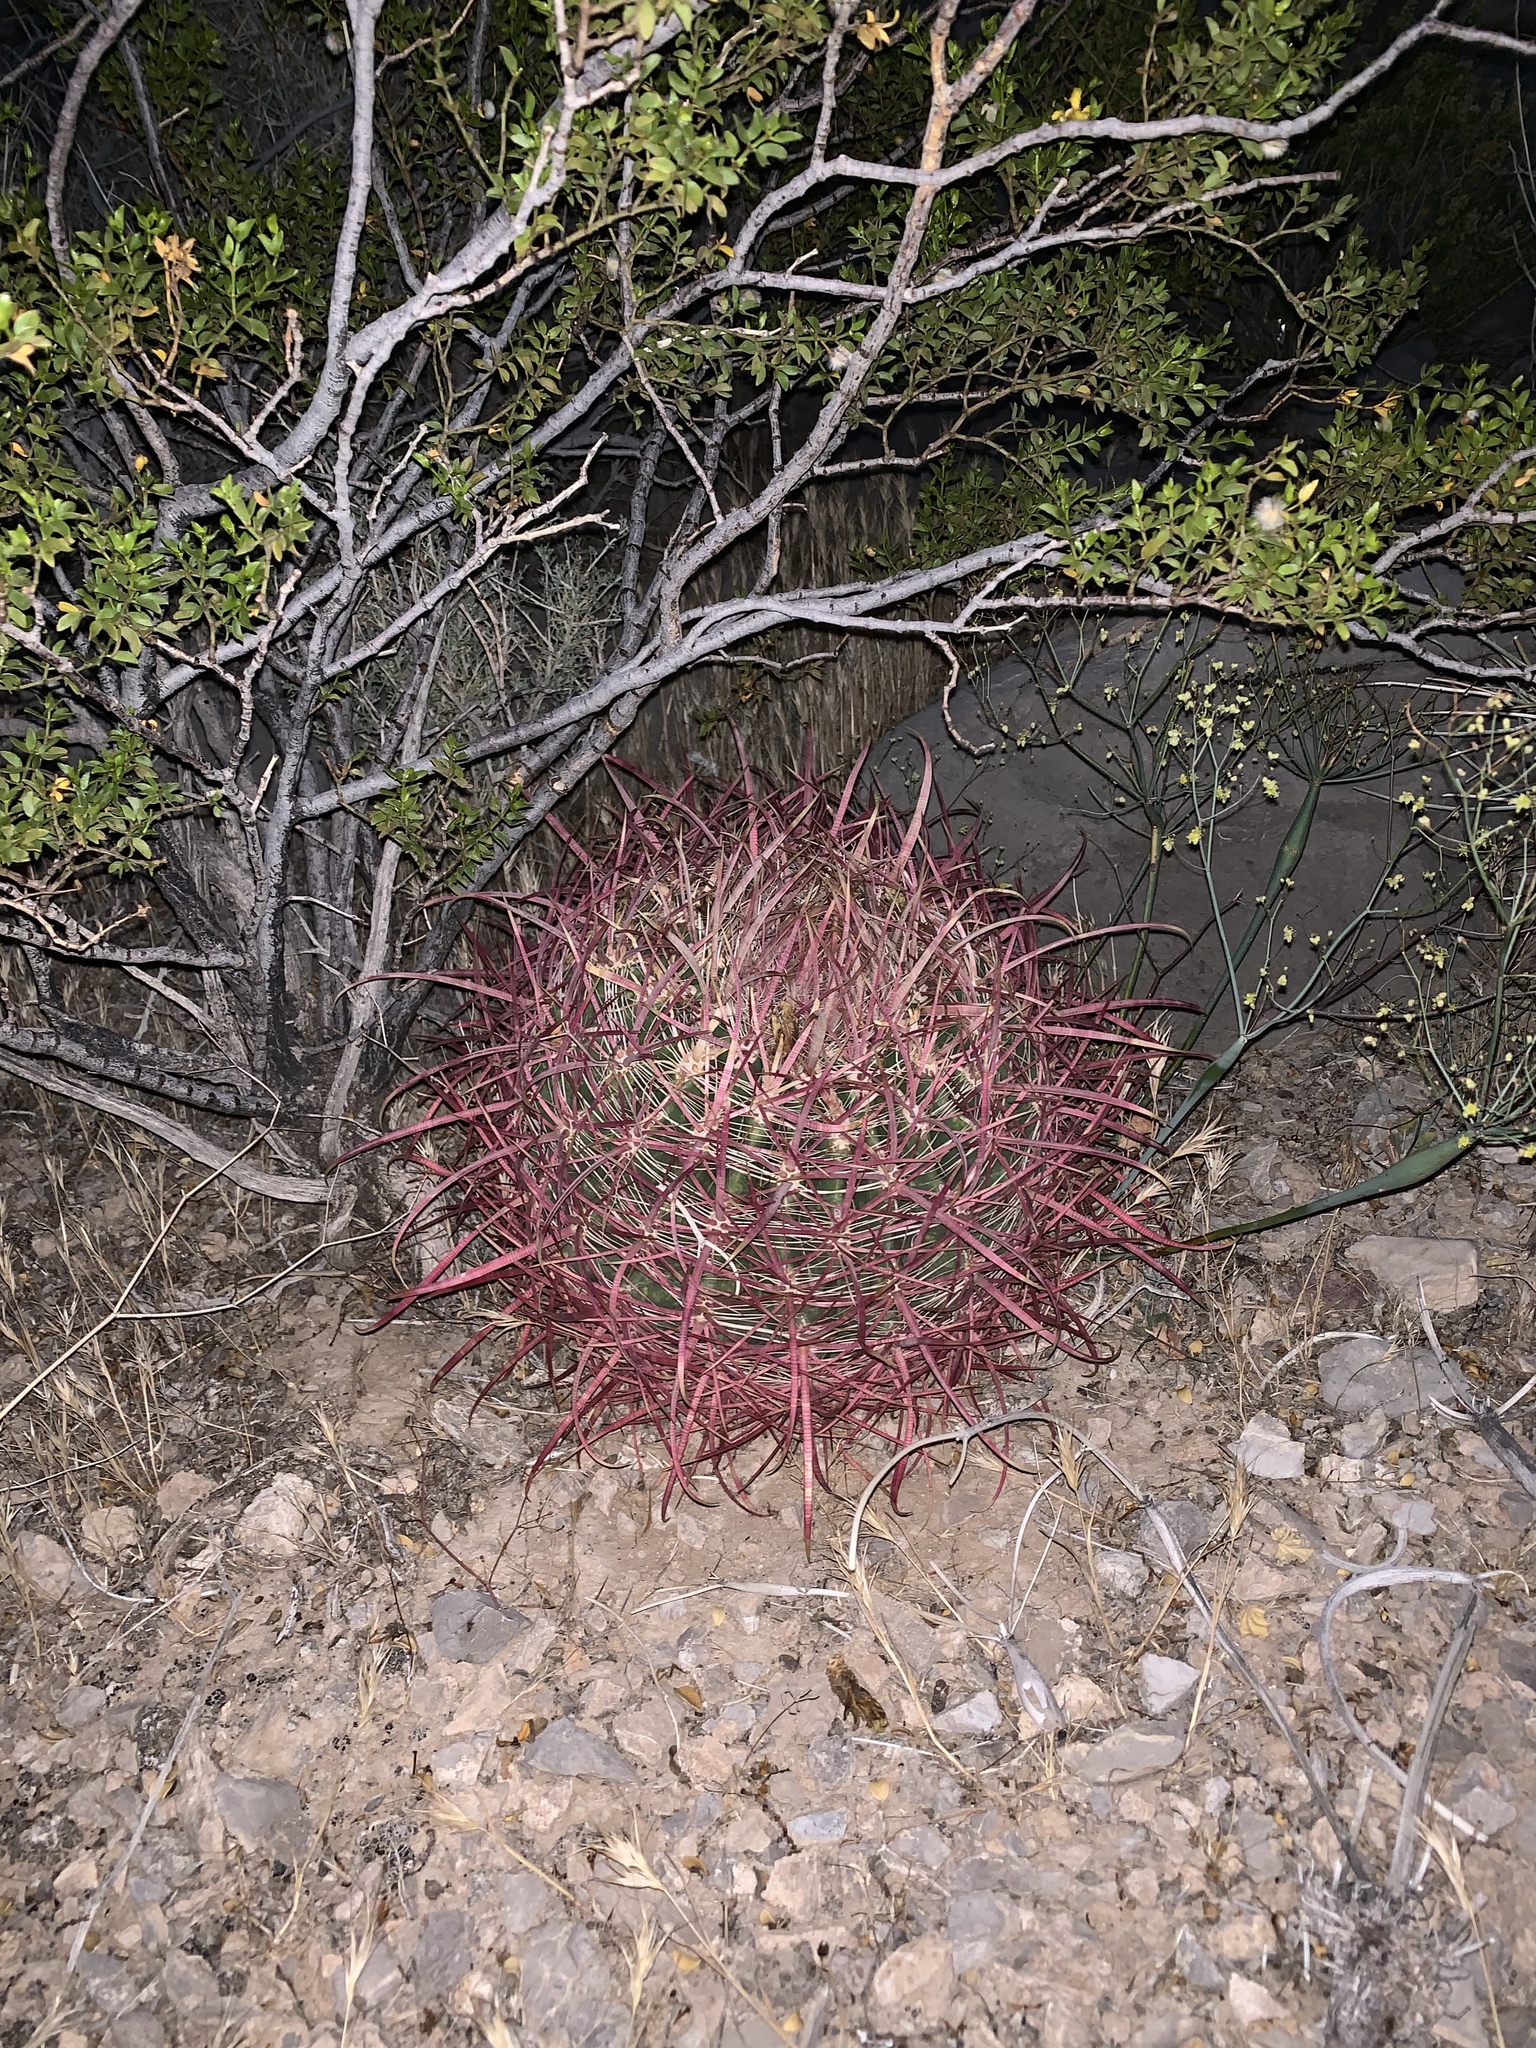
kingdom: Plantae
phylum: Tracheophyta
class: Magnoliopsida
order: Caryophyllales
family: Cactaceae
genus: Ferocactus
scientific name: Ferocactus cylindraceus
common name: California barrel cactus
